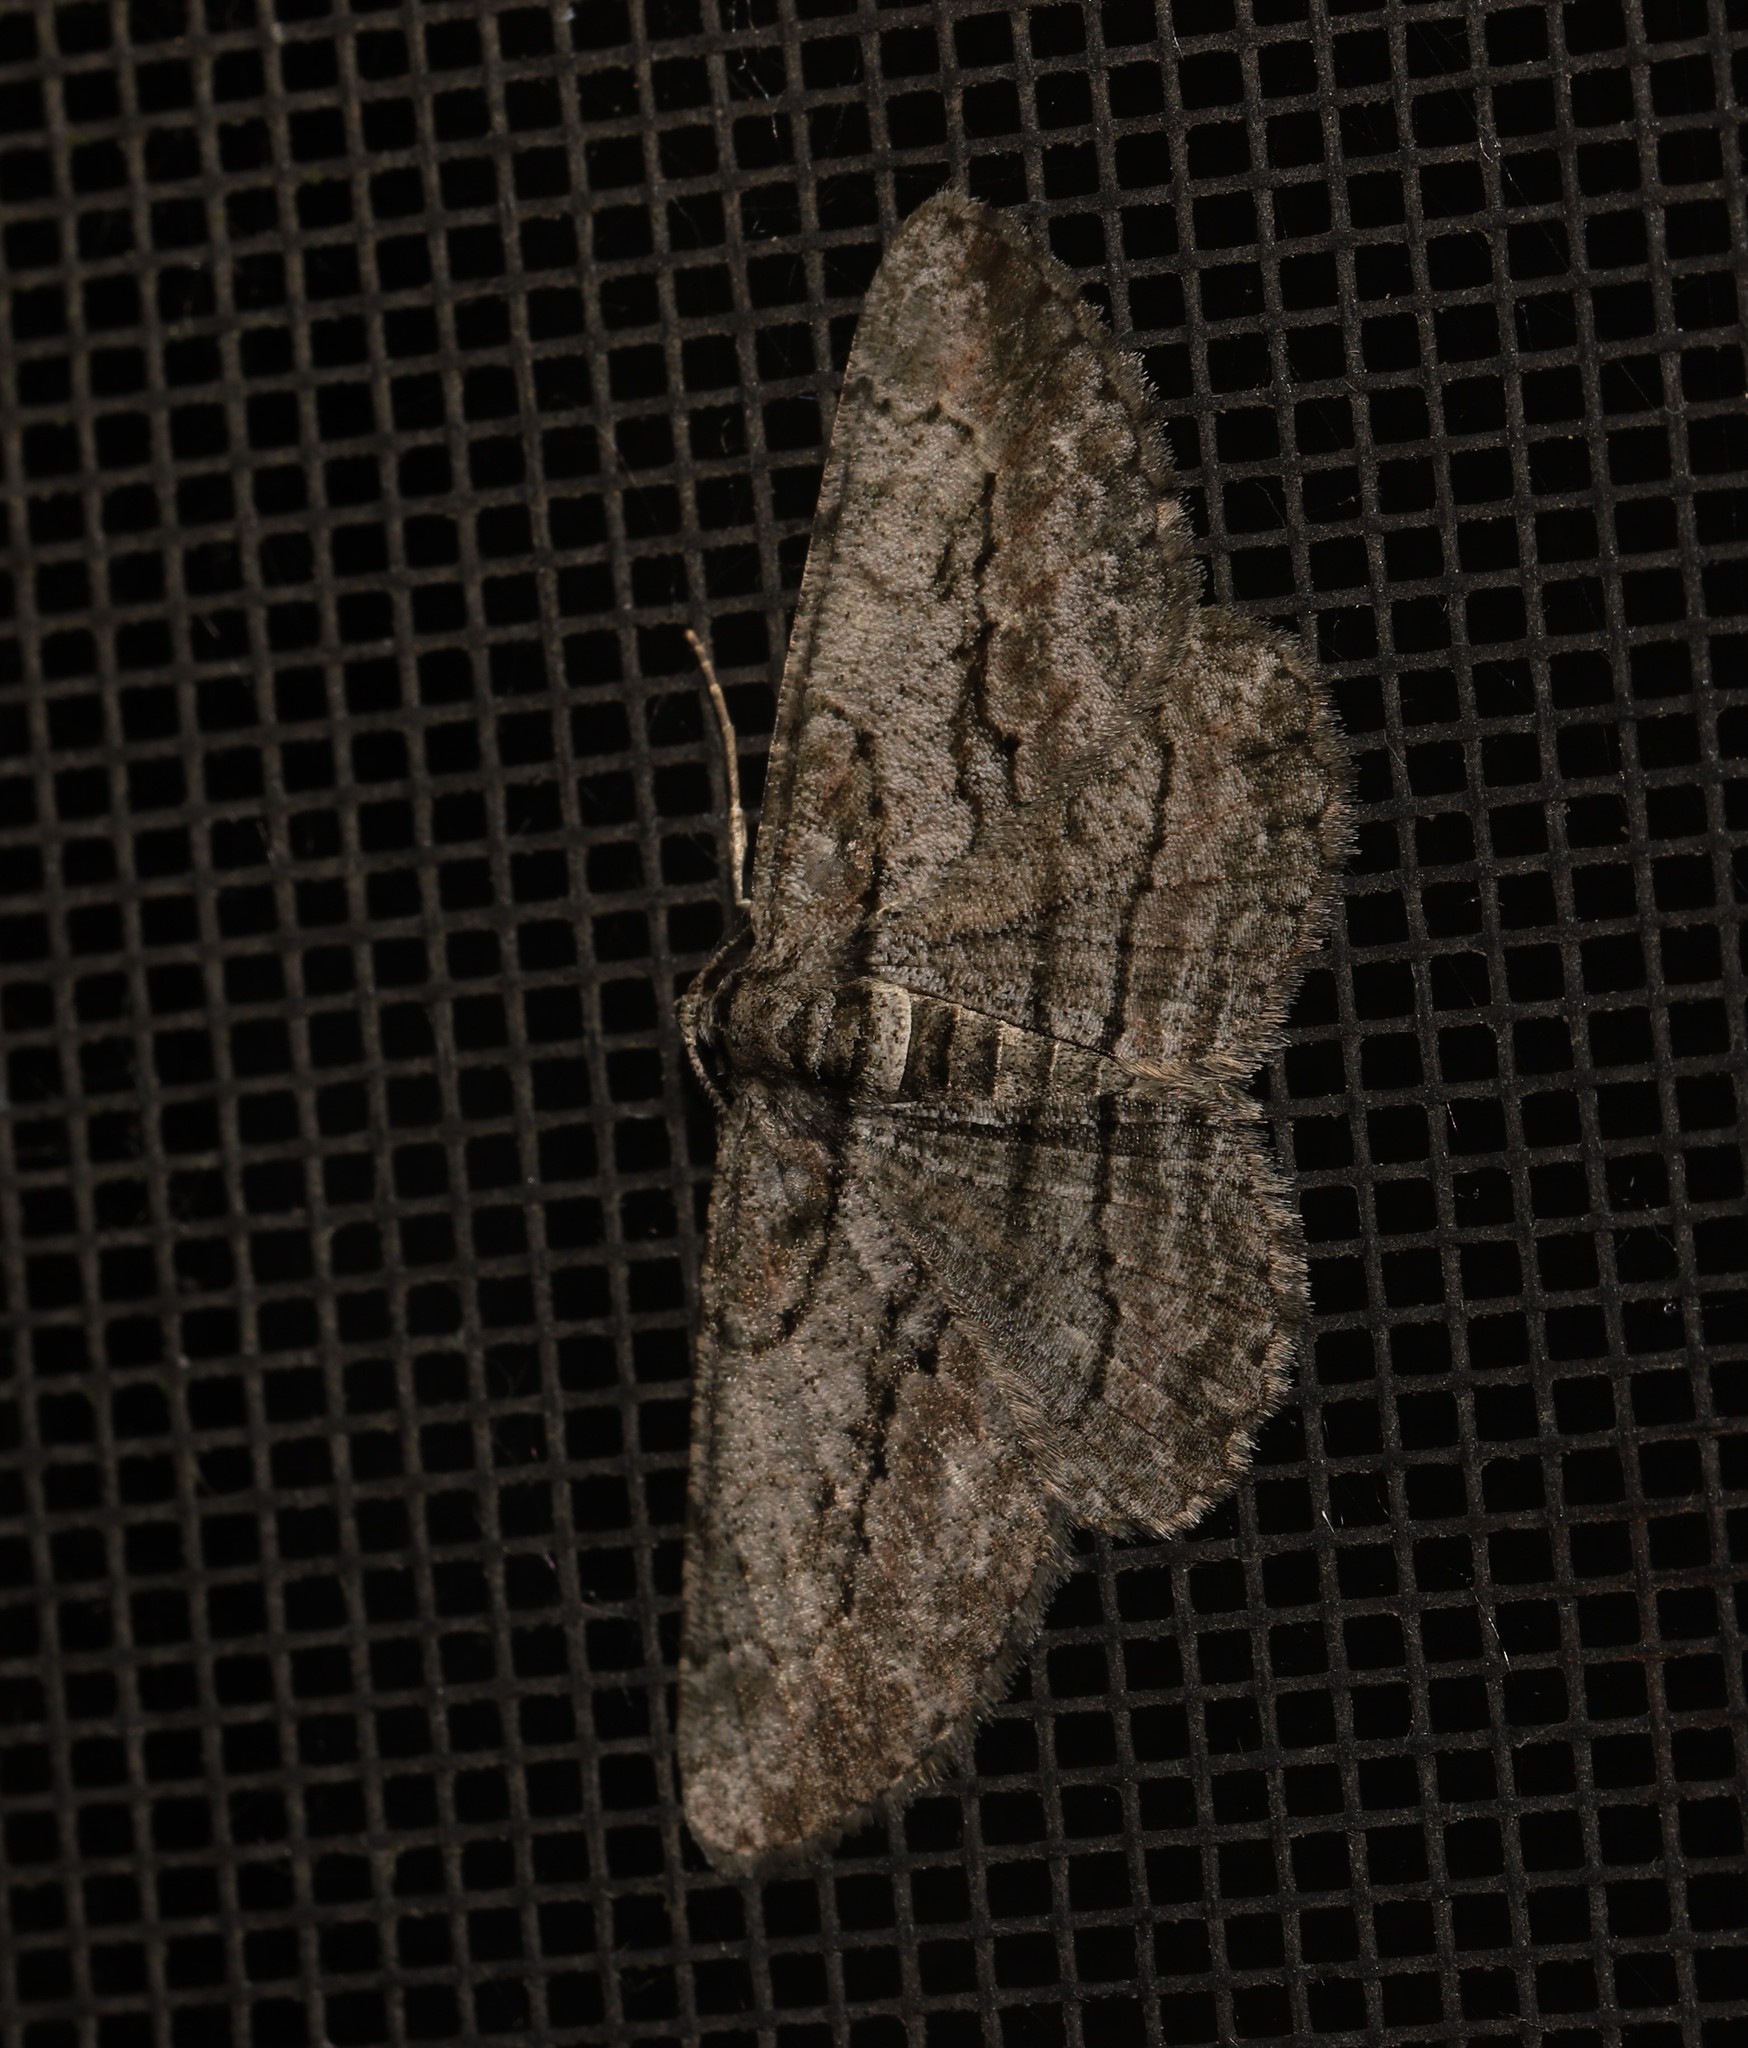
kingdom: Animalia
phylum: Arthropoda
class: Insecta
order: Lepidoptera
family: Geometridae
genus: Anavitrinella
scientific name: Anavitrinella pampinaria
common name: Common gray
